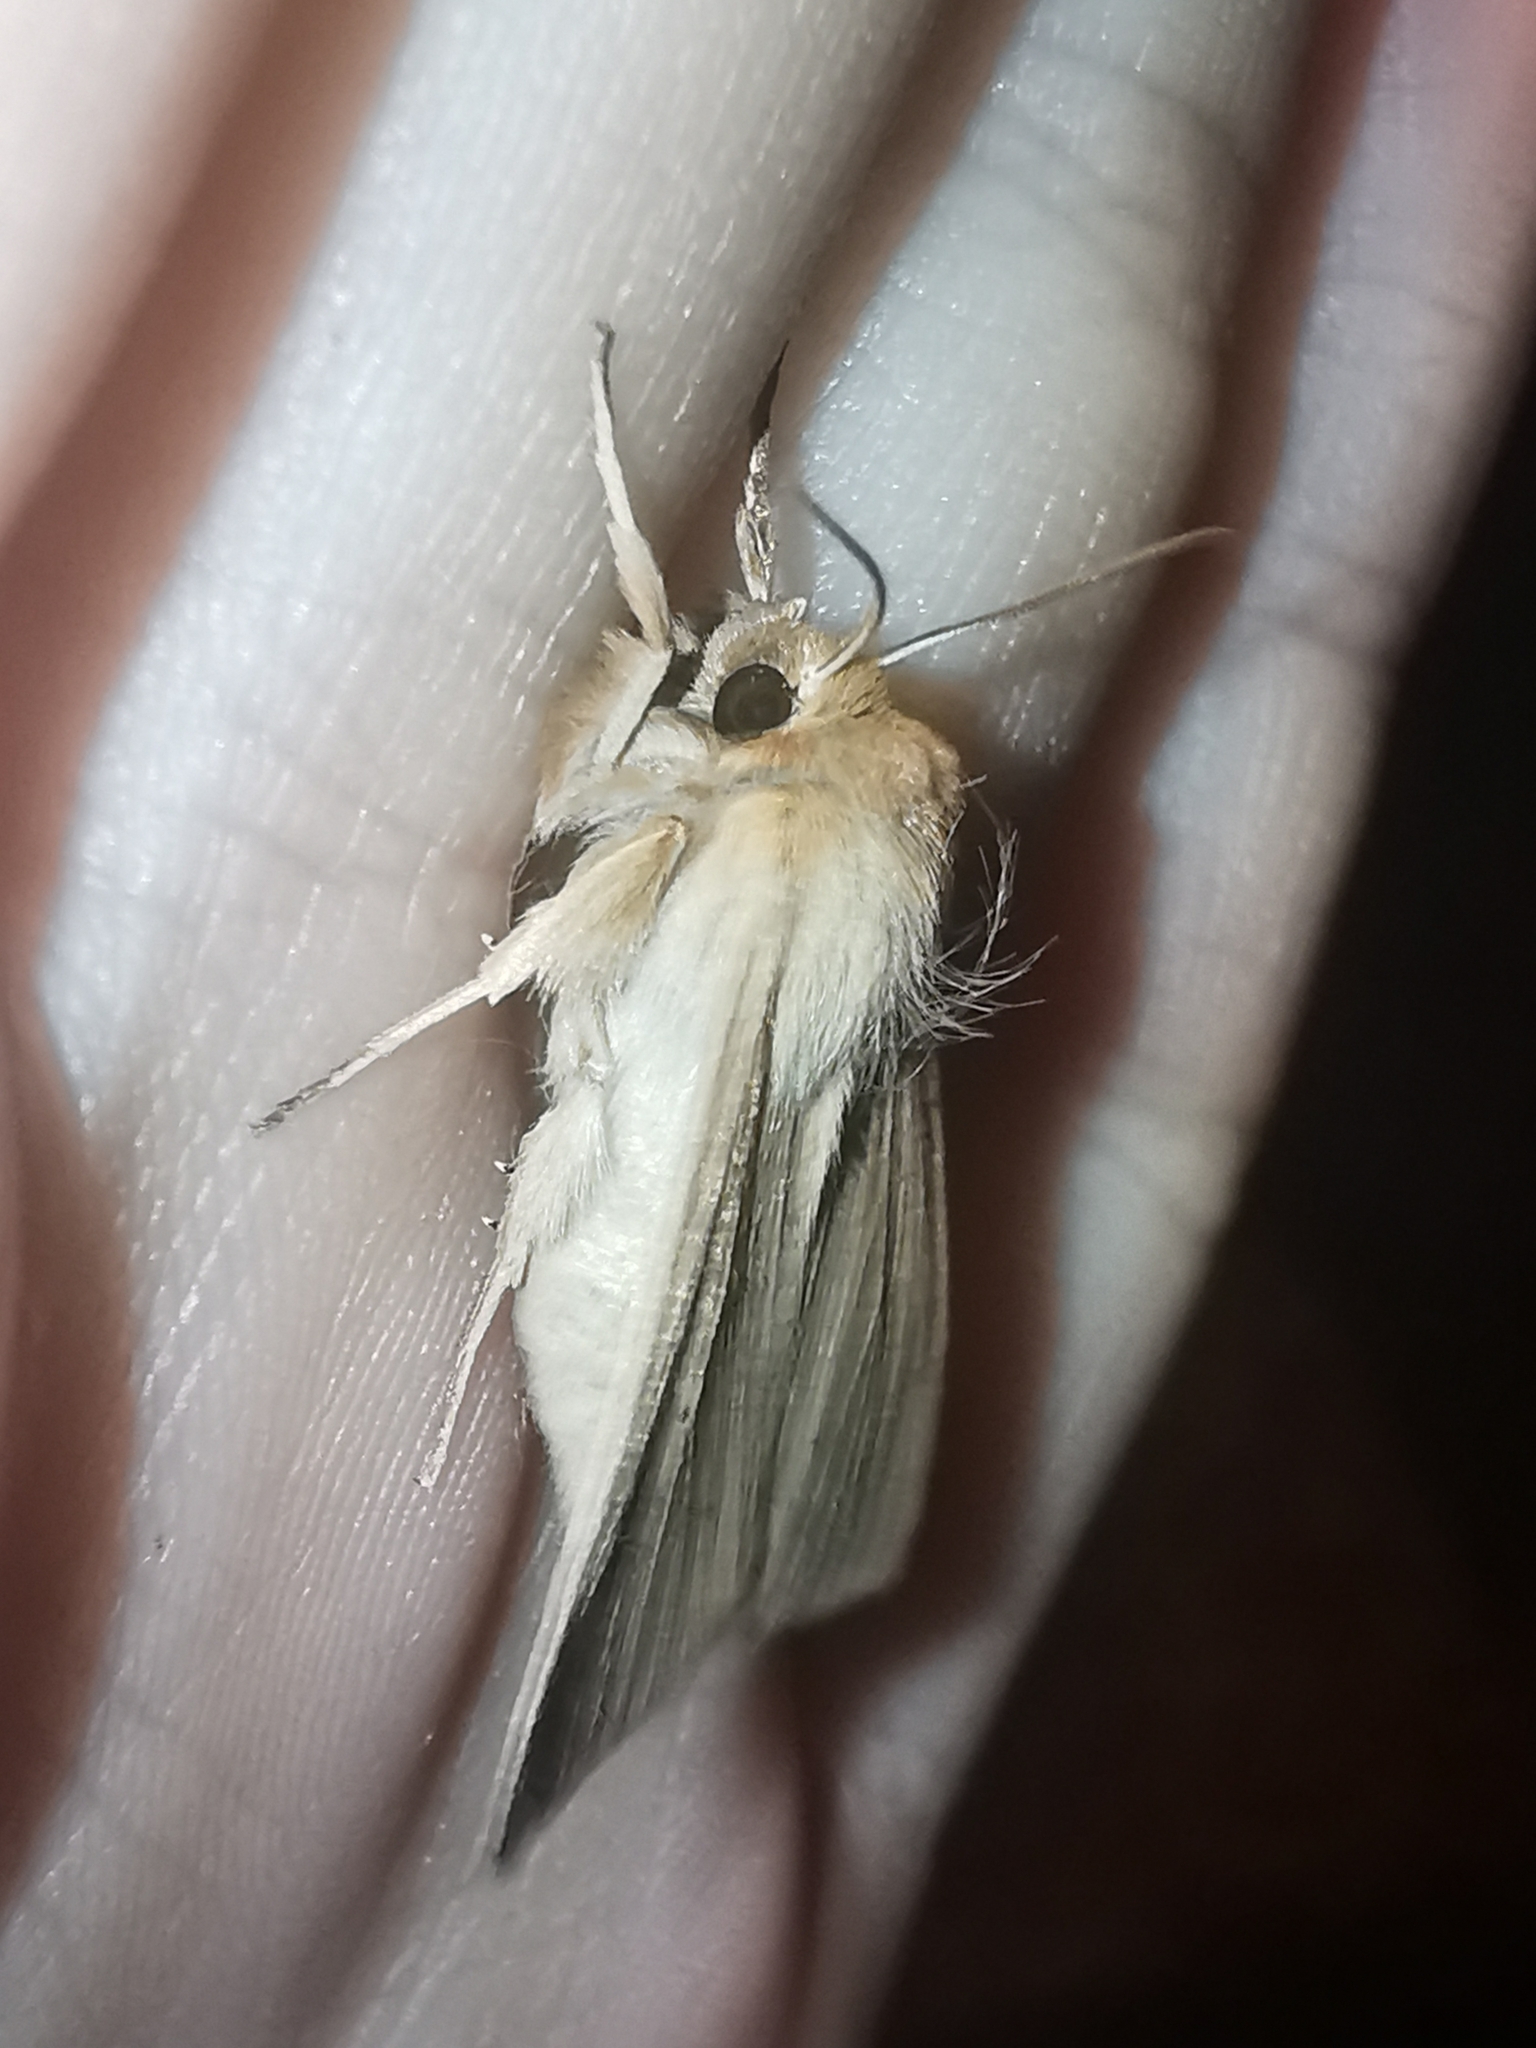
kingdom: Animalia
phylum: Arthropoda
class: Insecta
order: Lepidoptera
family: Noctuidae
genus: Mythimna
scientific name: Mythimna pallens
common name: Common wainscot
